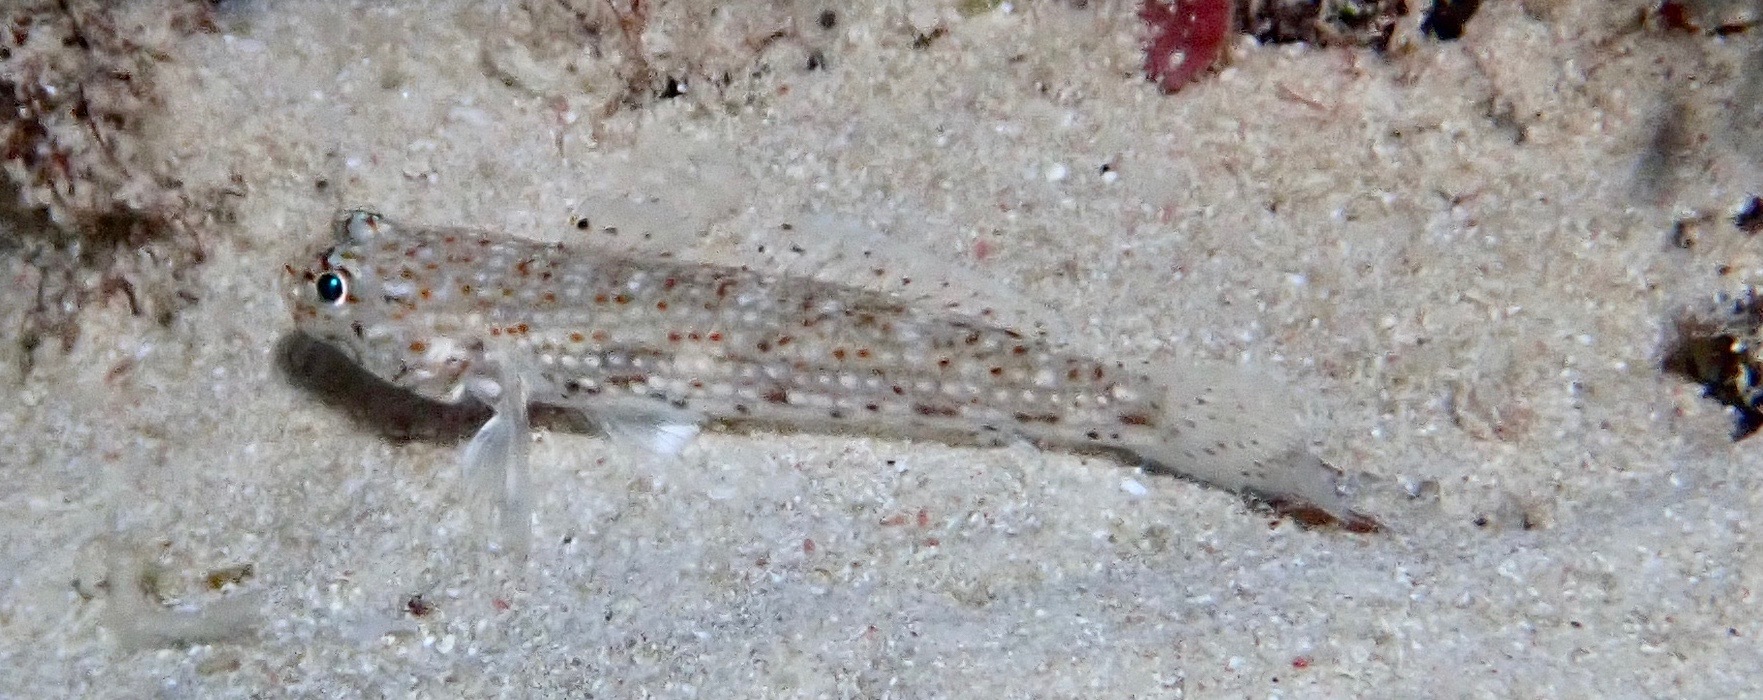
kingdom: Animalia
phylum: Chordata
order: Perciformes
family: Gobiidae
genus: Istigobius
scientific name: Istigobius decoratus
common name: Decorated goby
